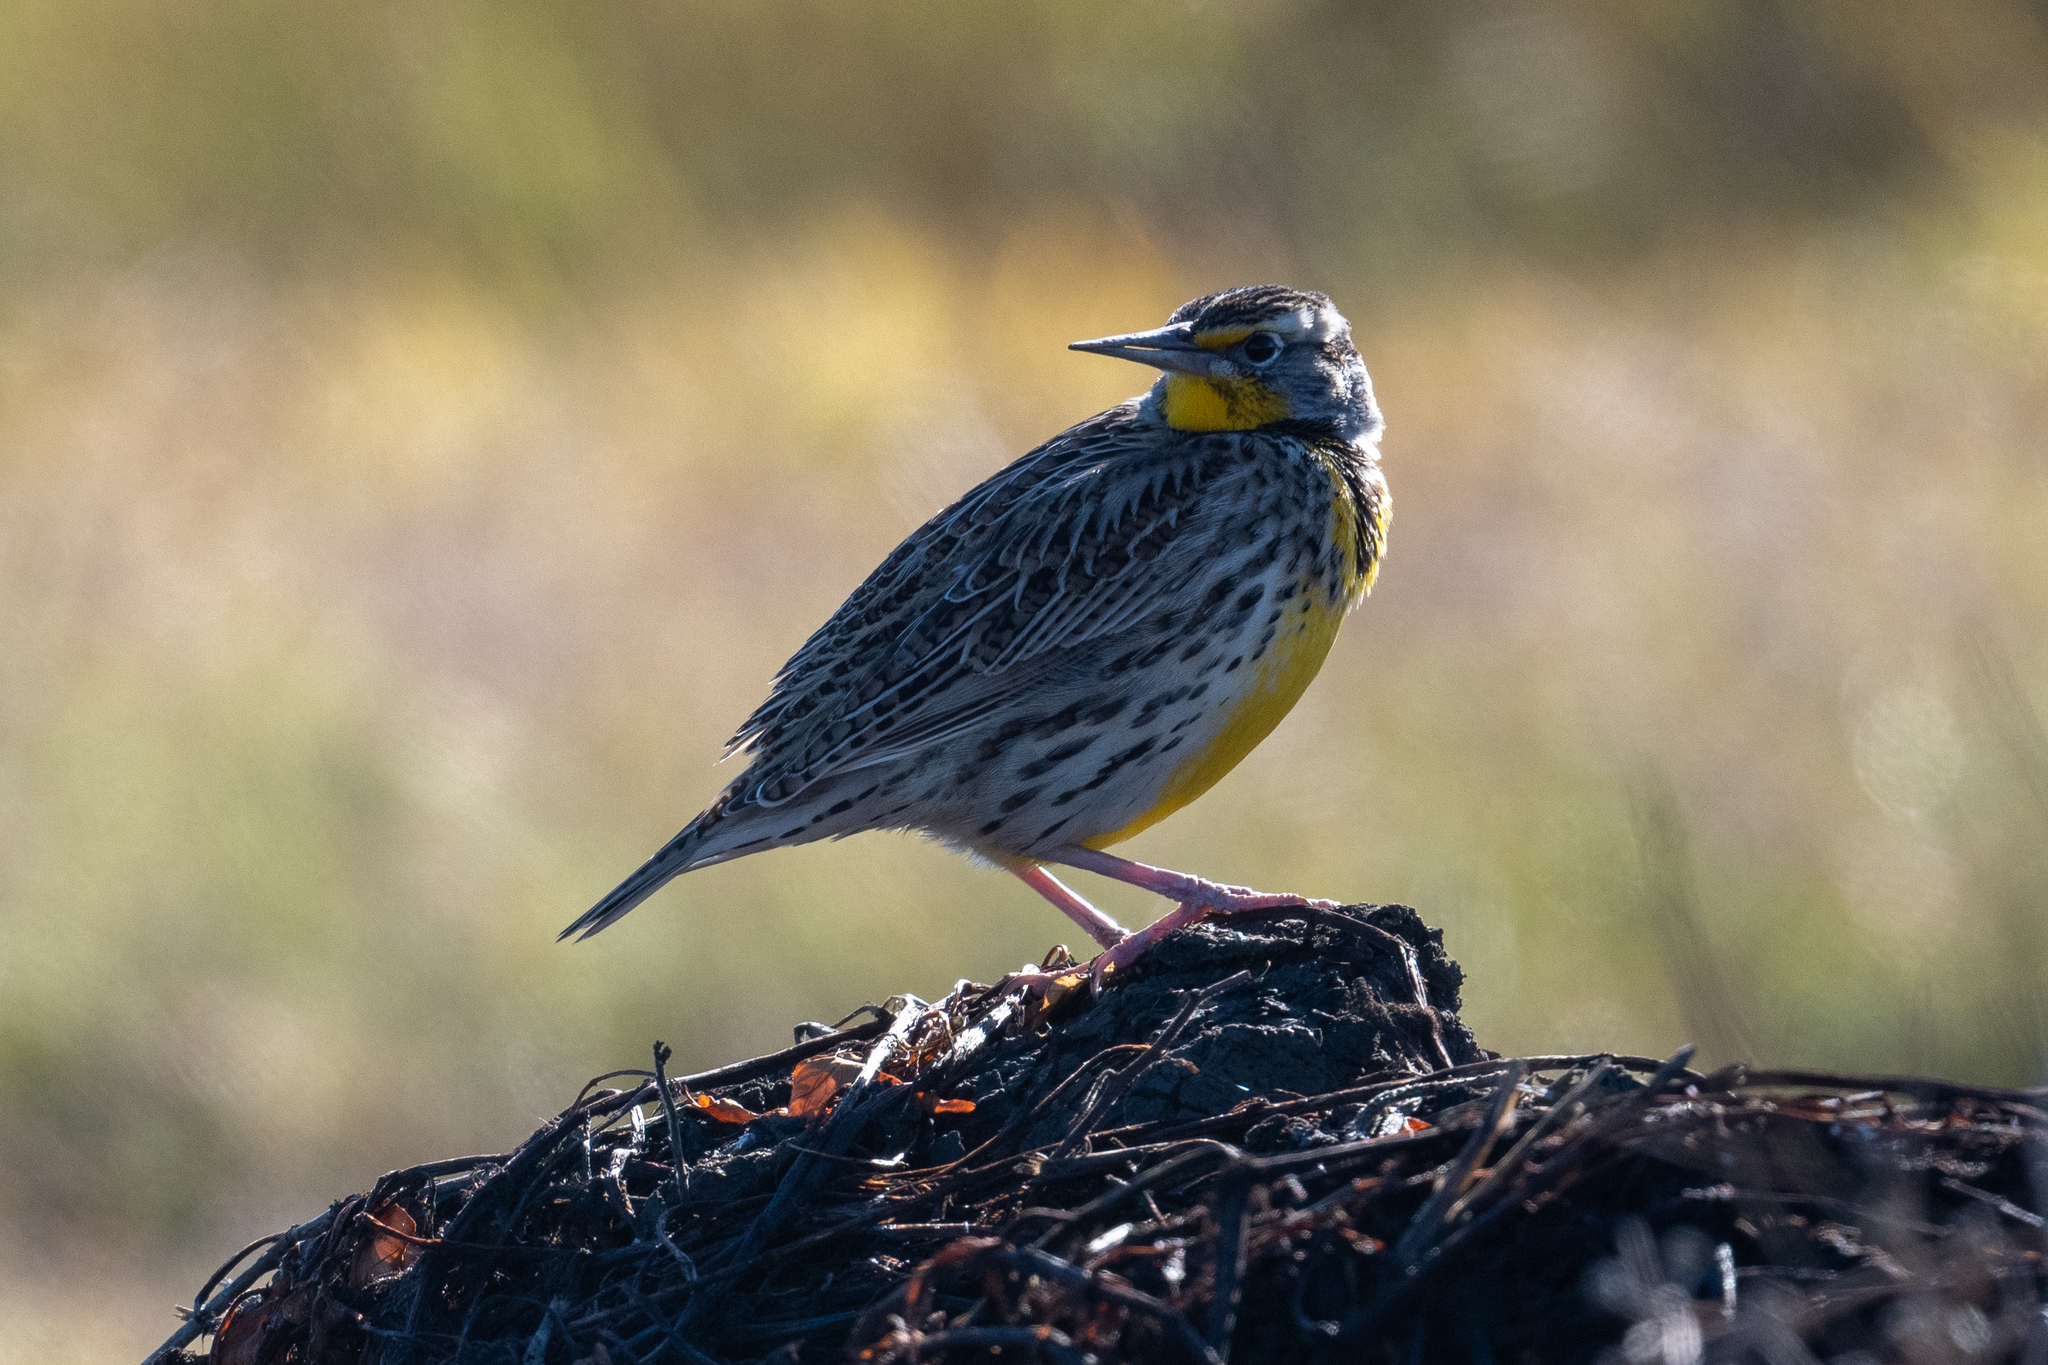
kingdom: Animalia
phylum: Chordata
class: Aves
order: Passeriformes
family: Icteridae
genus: Sturnella
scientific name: Sturnella neglecta
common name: Western meadowlark
